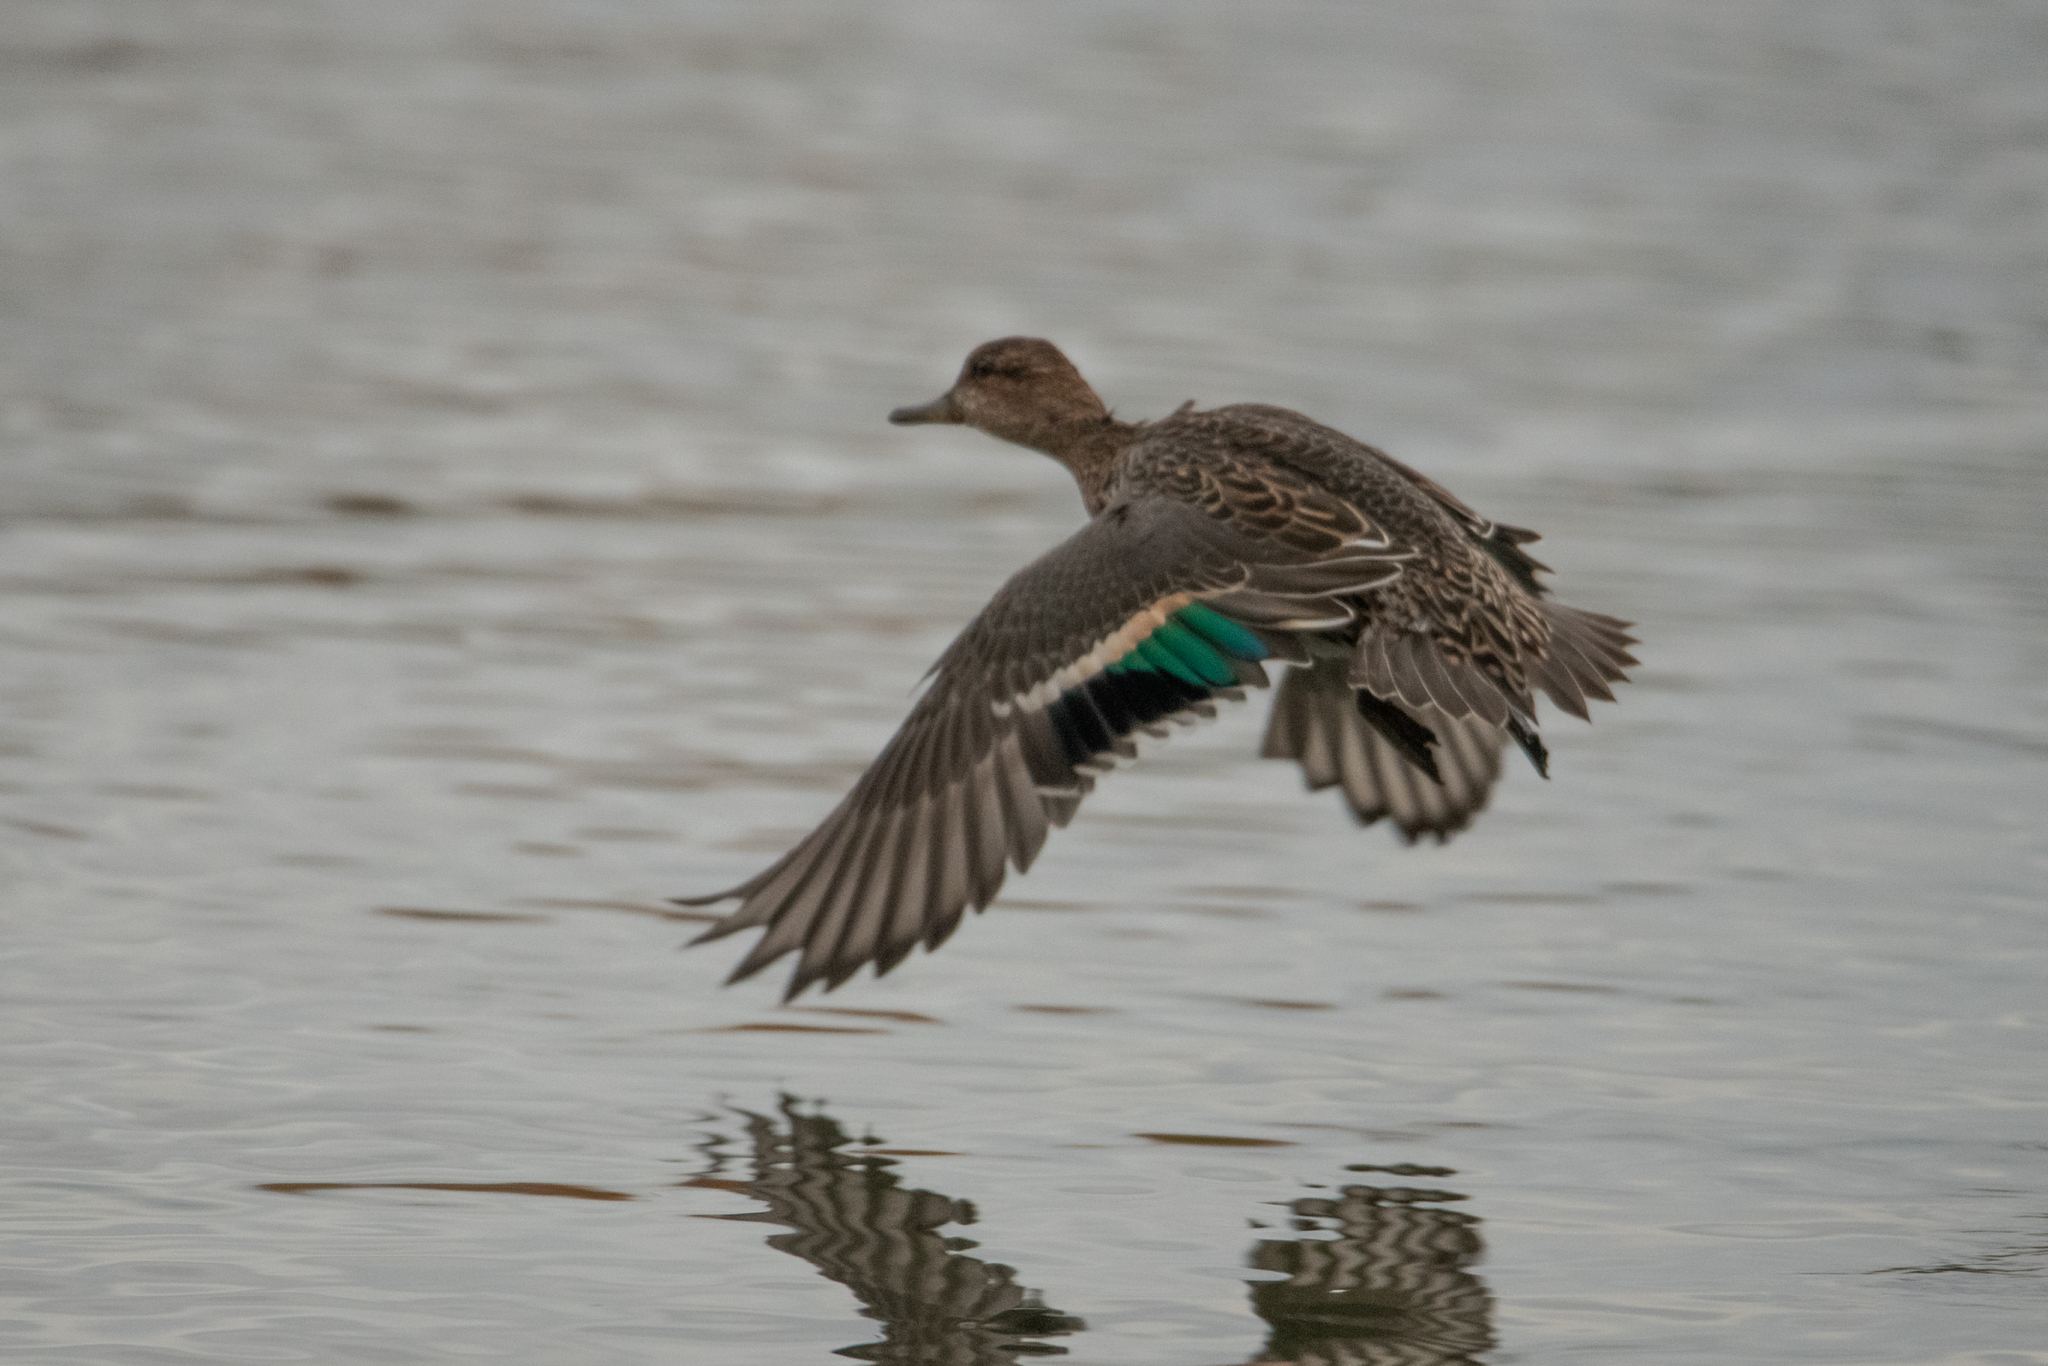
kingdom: Animalia
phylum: Chordata
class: Aves
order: Anseriformes
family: Anatidae
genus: Anas
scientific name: Anas crecca
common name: Eurasian teal
